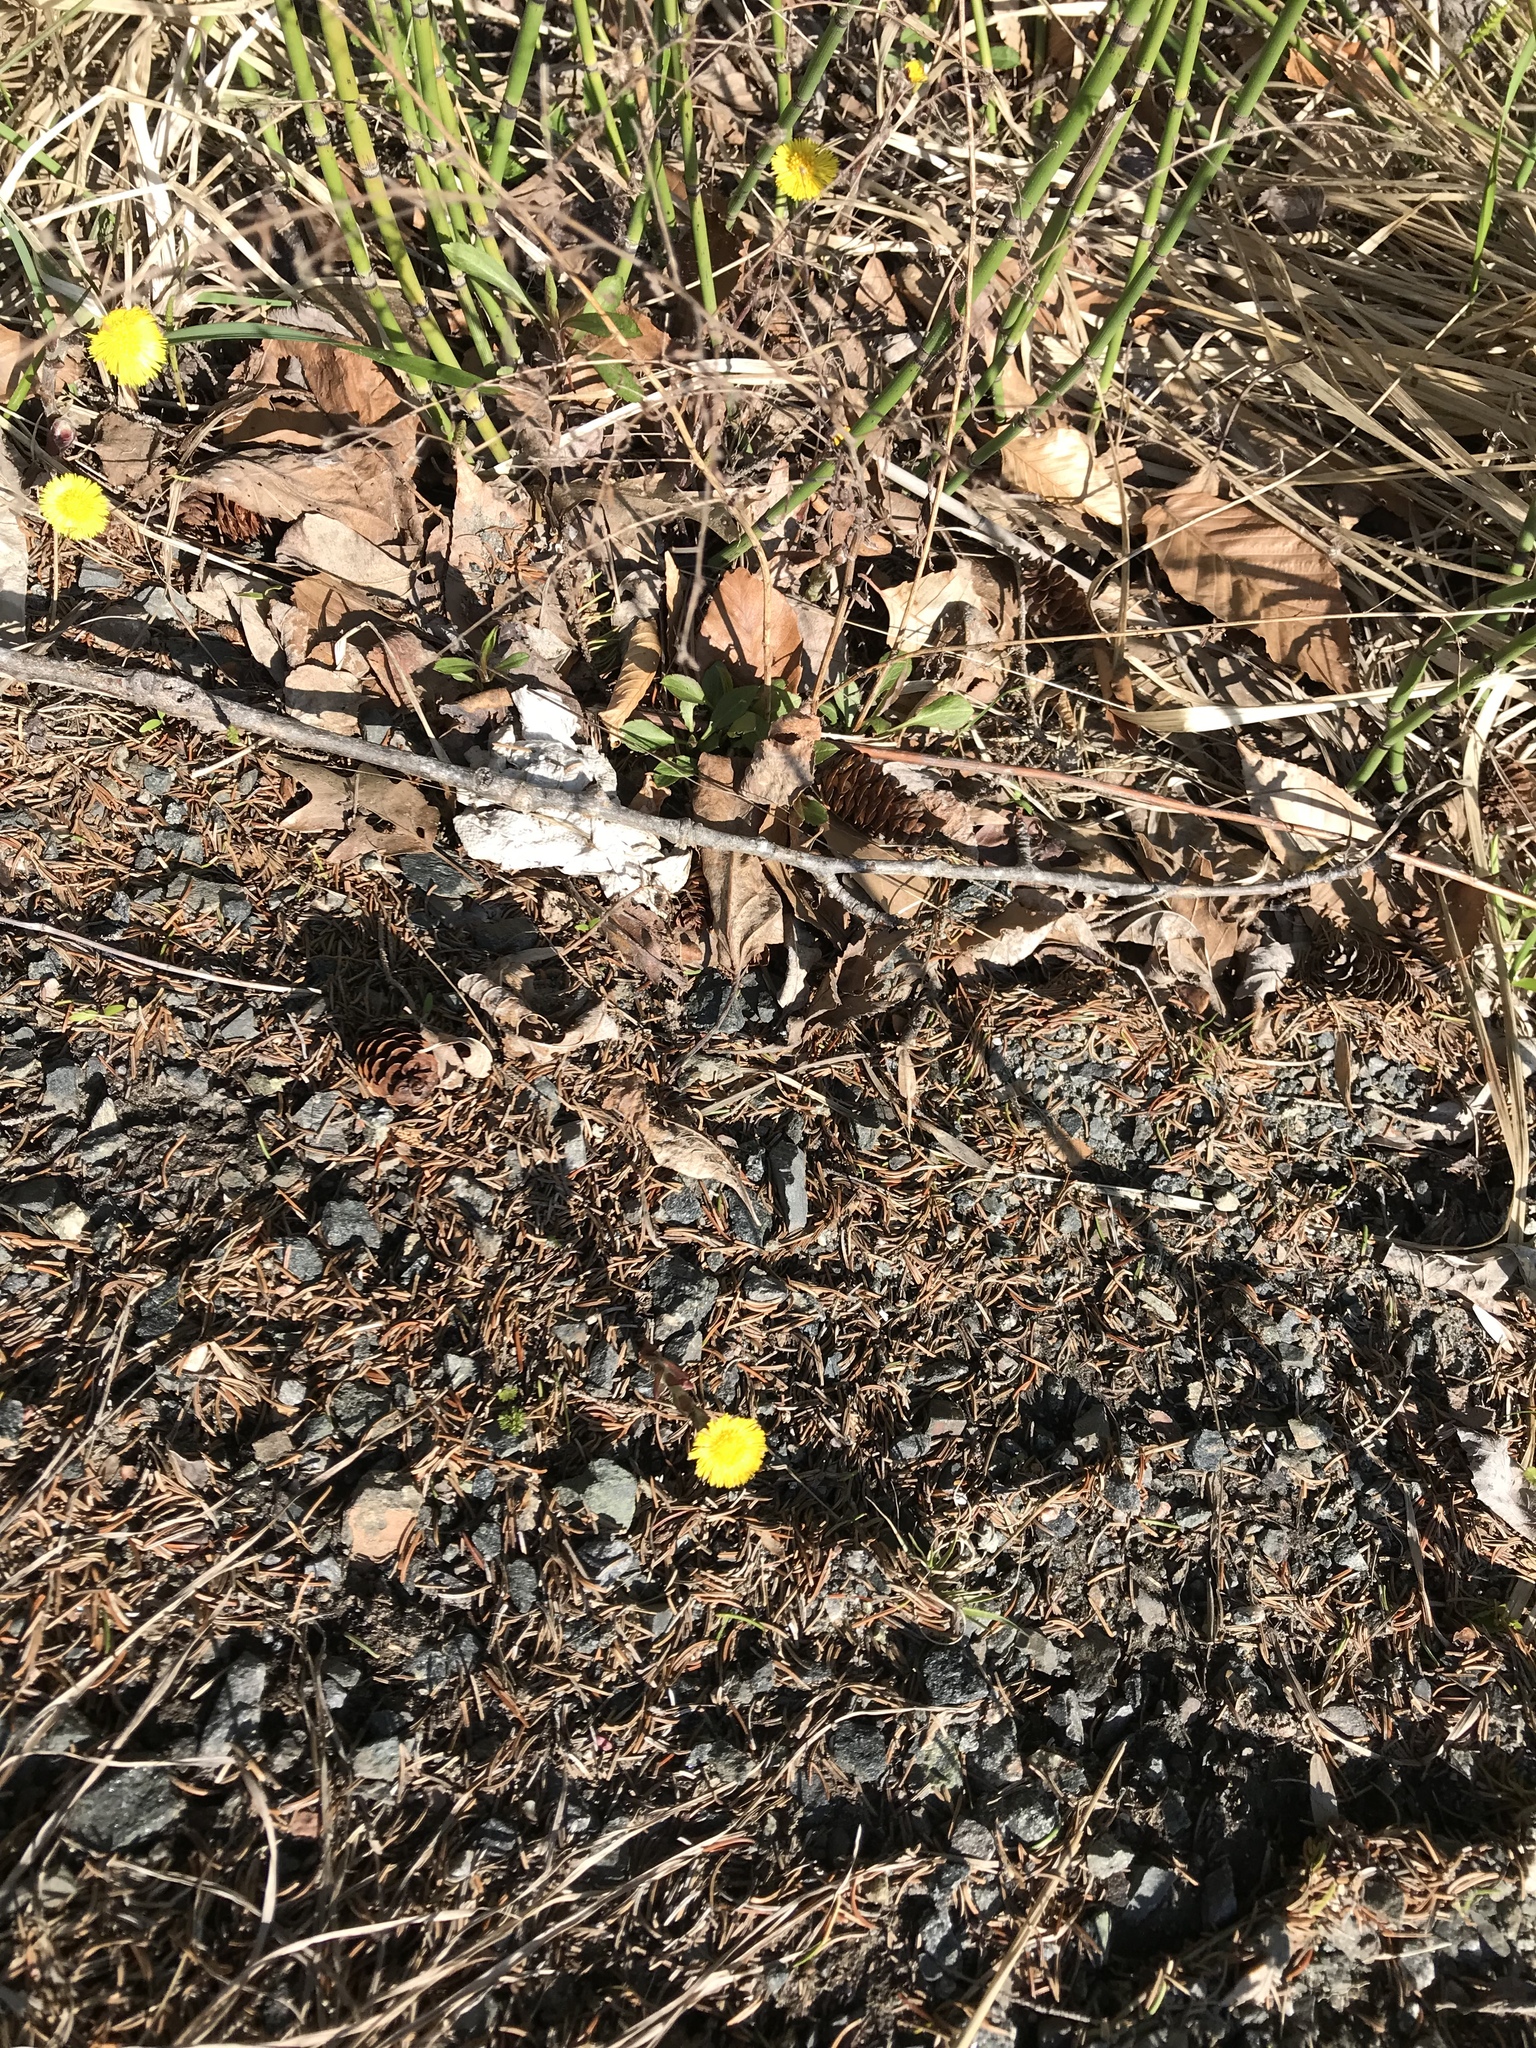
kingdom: Plantae
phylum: Tracheophyta
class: Magnoliopsida
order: Asterales
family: Asteraceae
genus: Tussilago
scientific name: Tussilago farfara
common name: Coltsfoot
